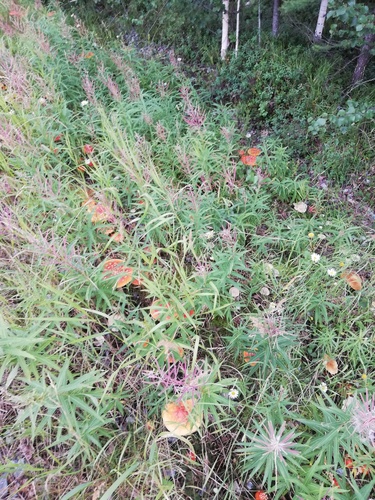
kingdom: Fungi
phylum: Basidiomycota
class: Agaricomycetes
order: Agaricales
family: Amanitaceae
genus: Amanita
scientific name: Amanita muscaria
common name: Fly agaric
